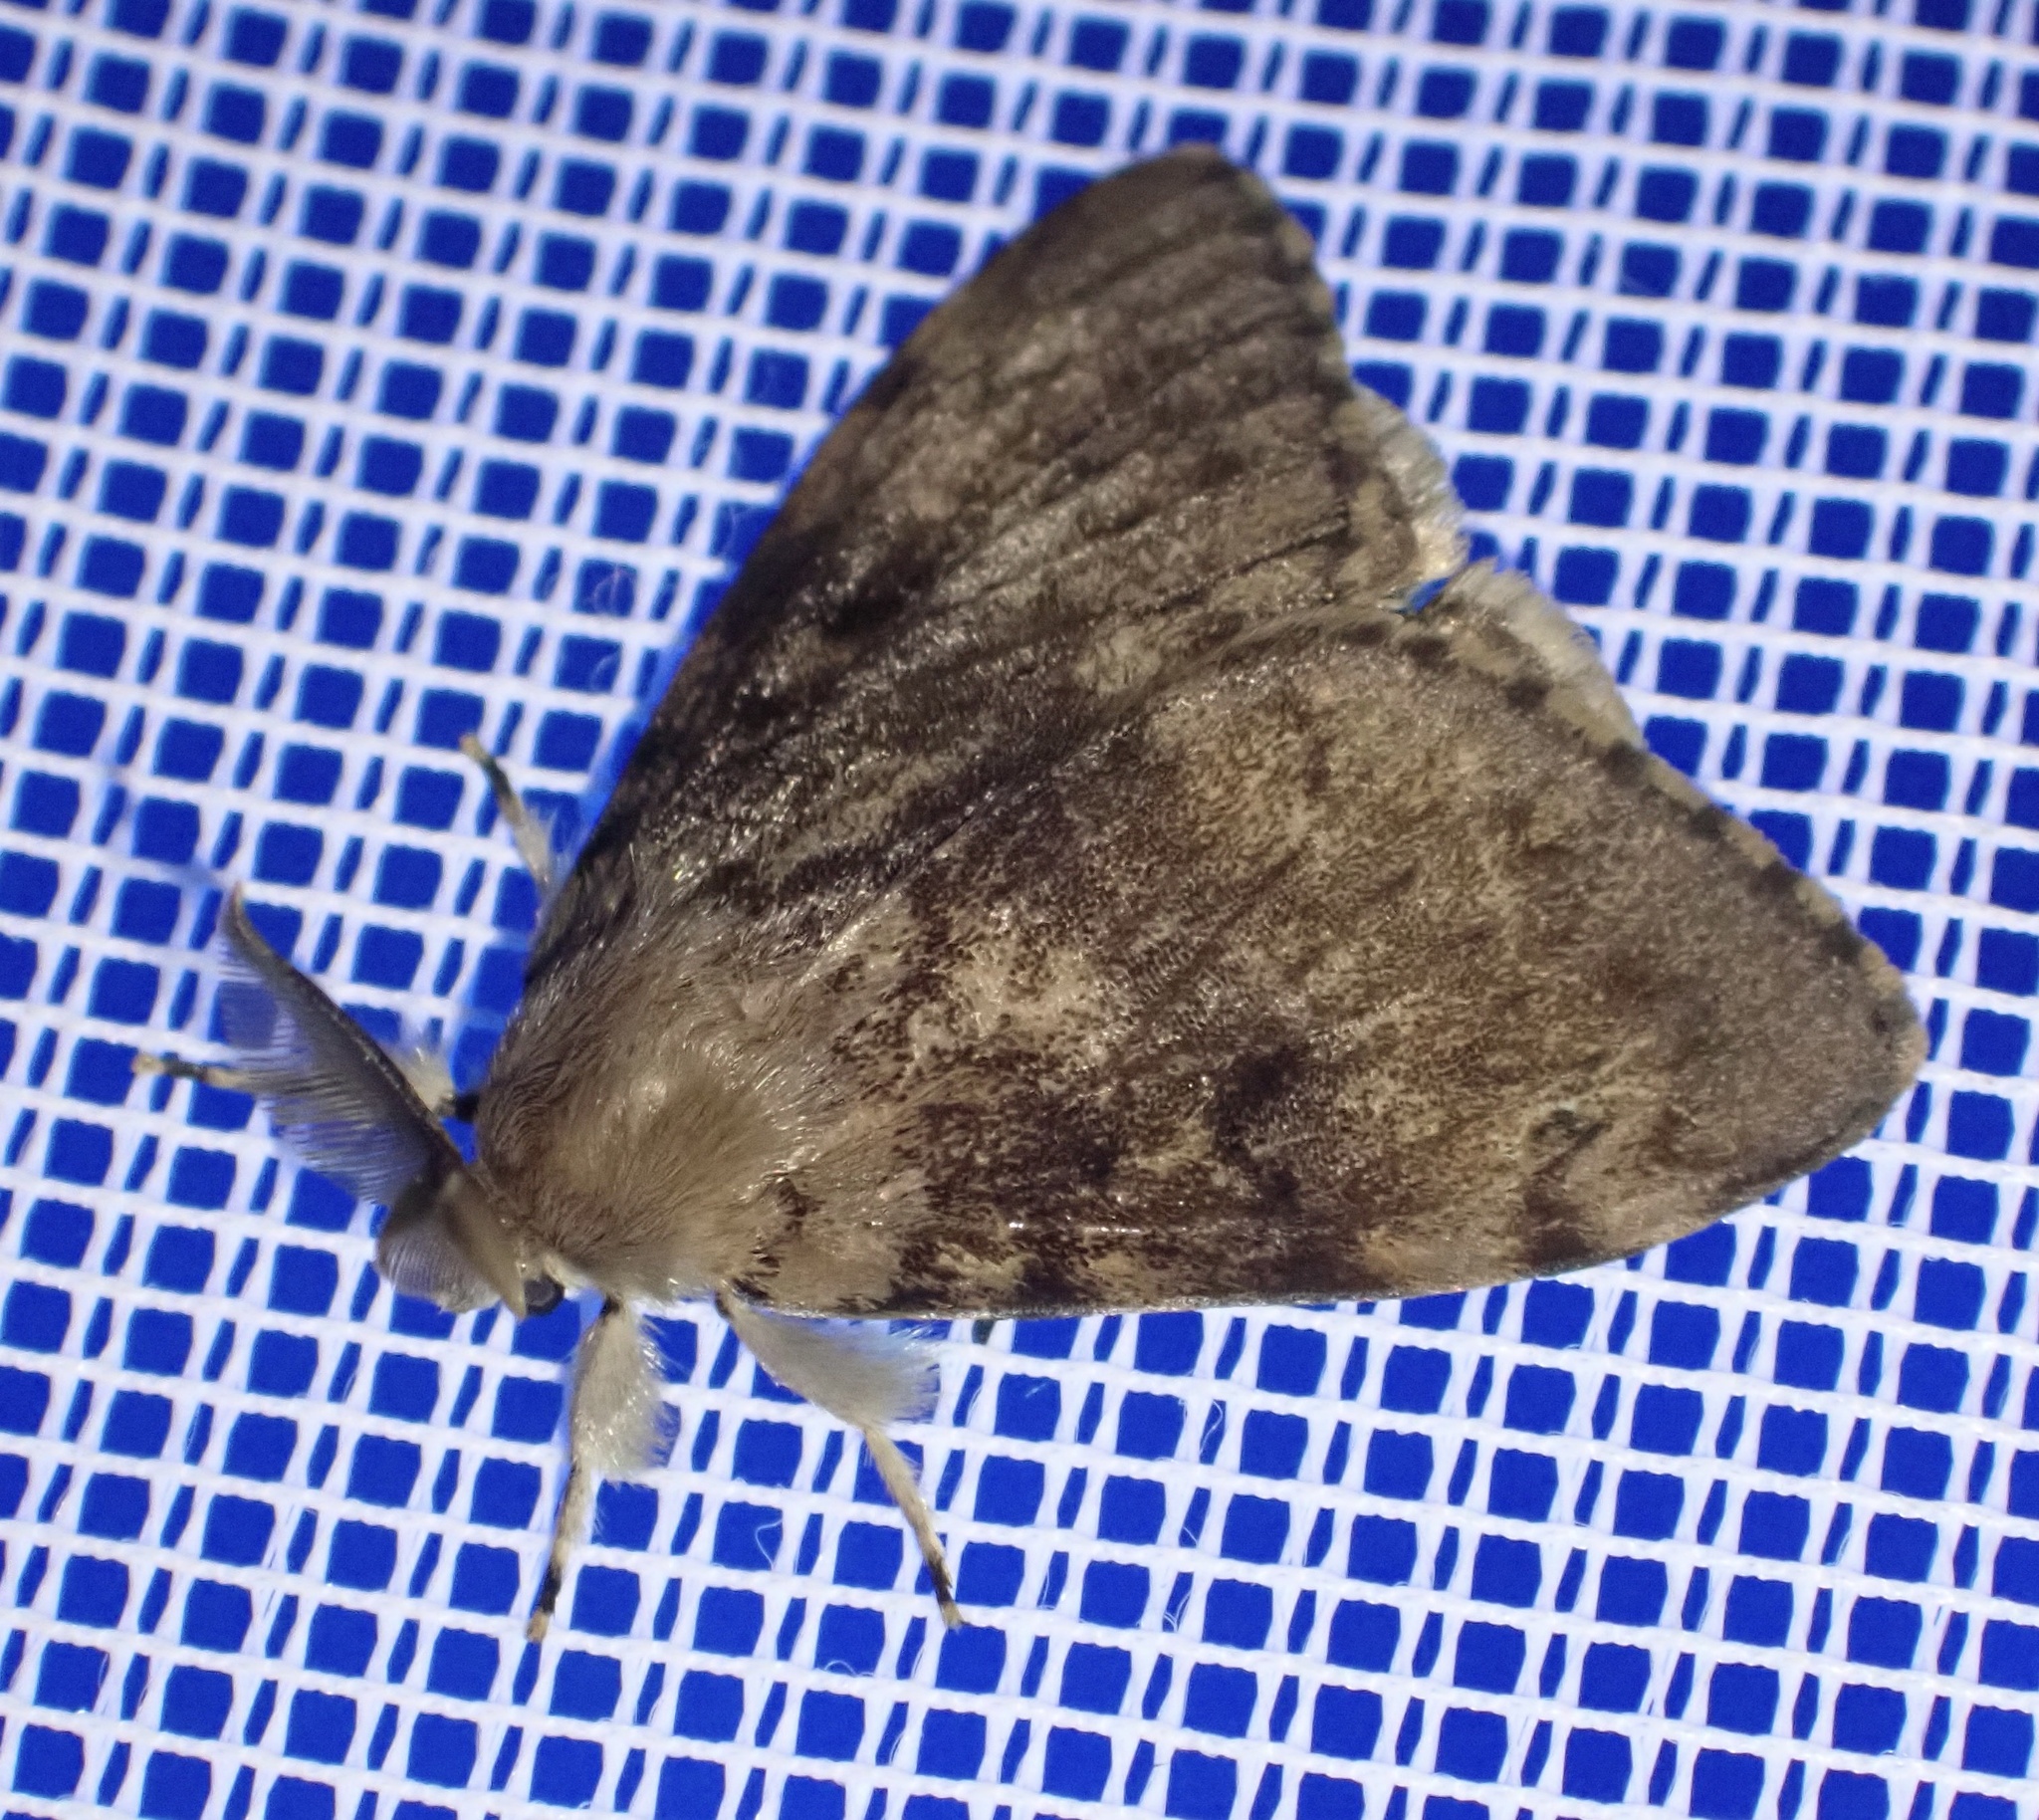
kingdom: Animalia
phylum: Arthropoda
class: Insecta
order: Lepidoptera
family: Erebidae
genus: Lymantria
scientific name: Lymantria dispar
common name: Gypsy moth
